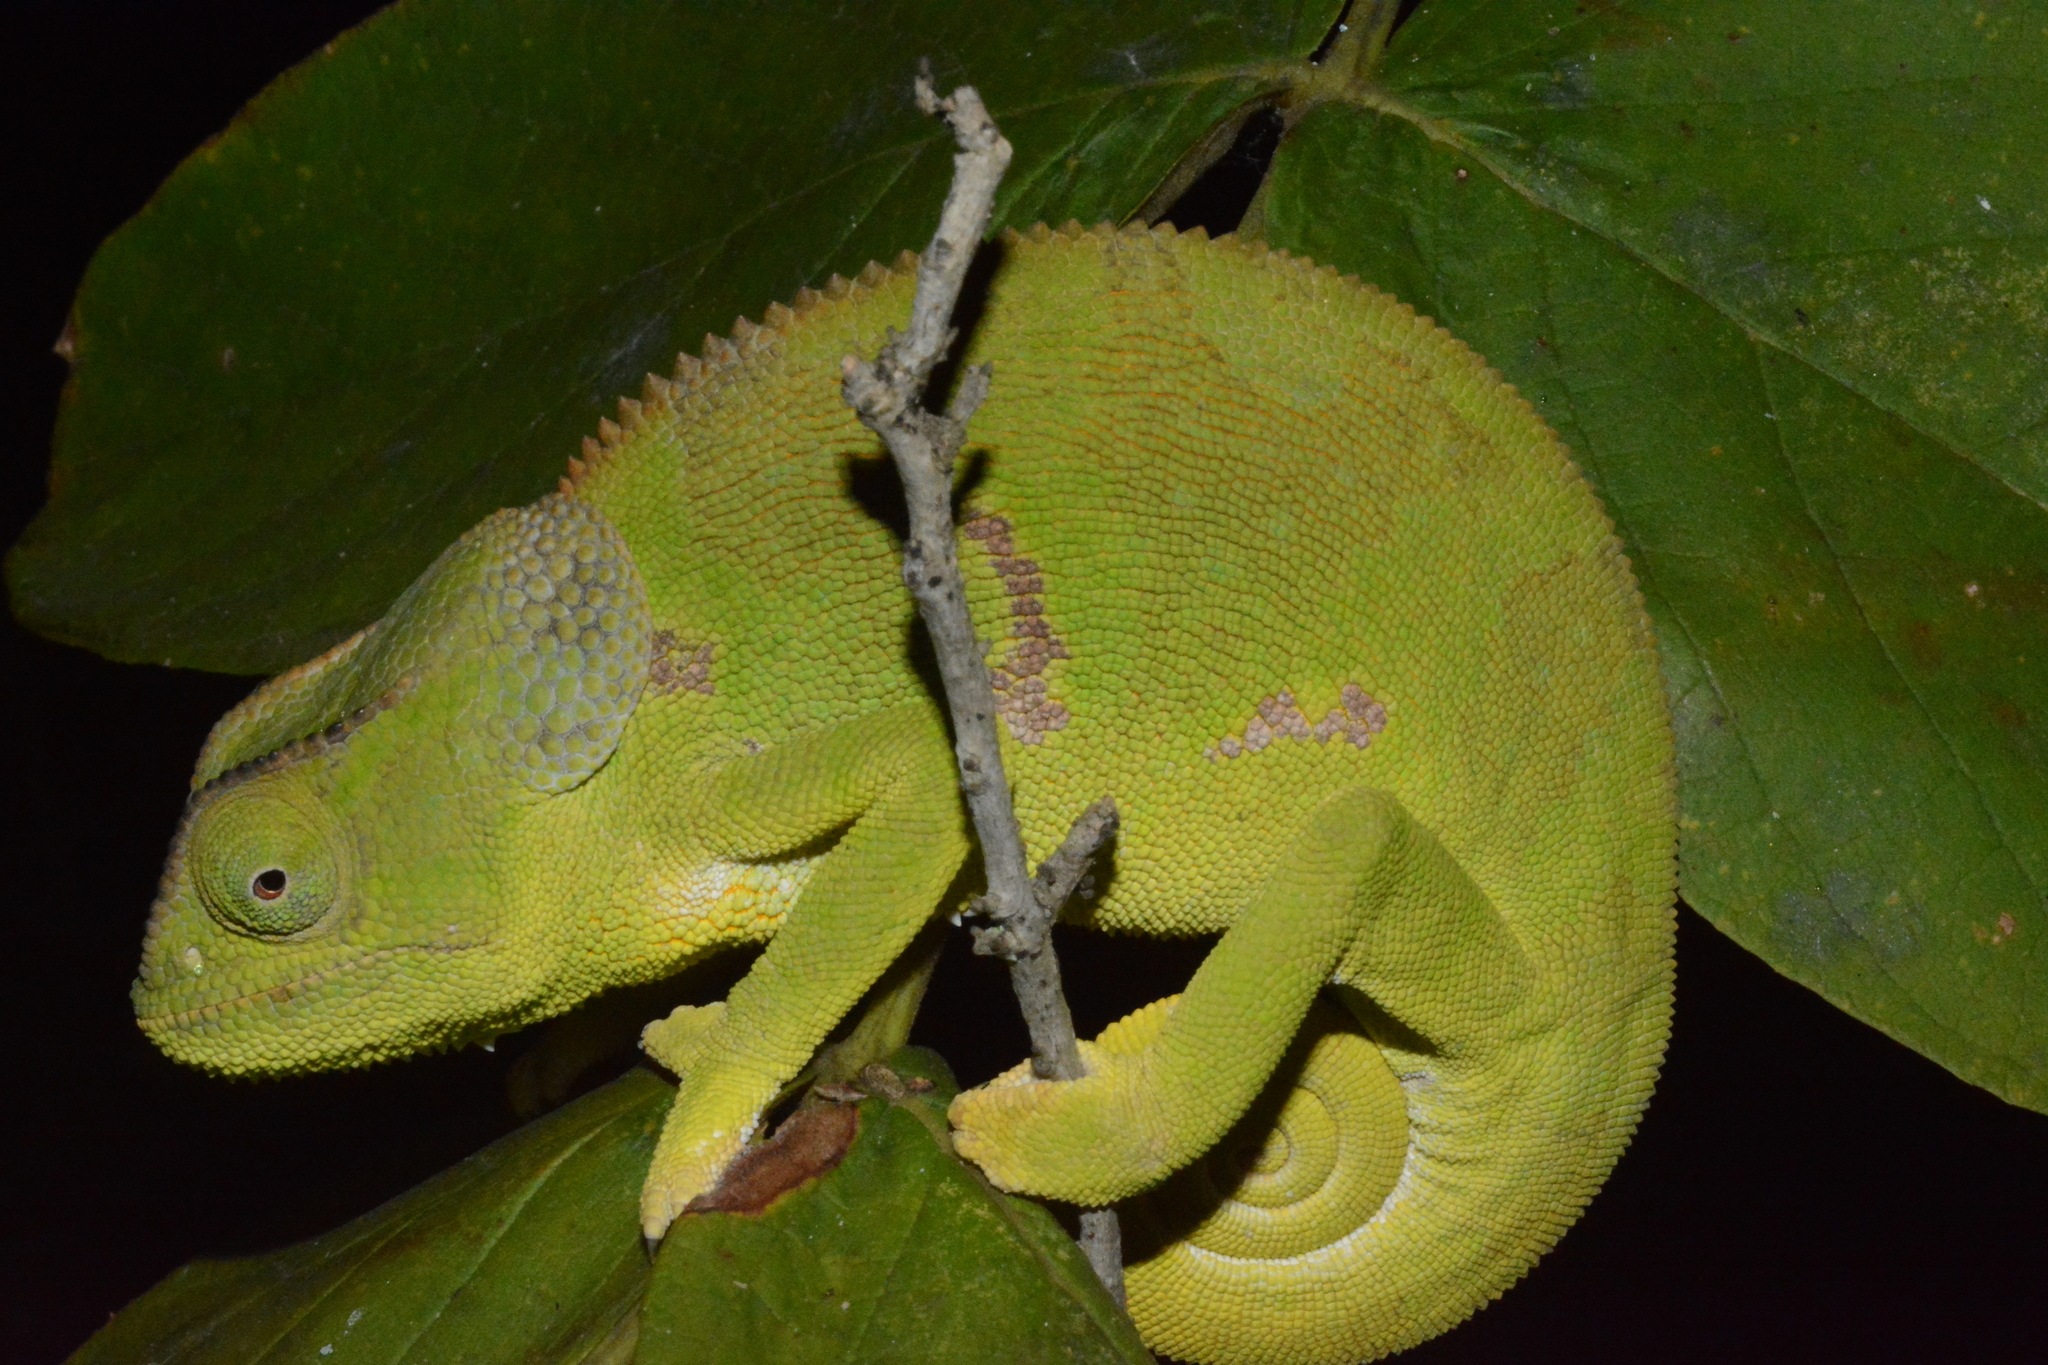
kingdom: Animalia
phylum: Chordata
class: Squamata
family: Chamaeleonidae
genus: Chamaeleo
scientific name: Chamaeleo dilepis
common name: Flapneck chameleon
